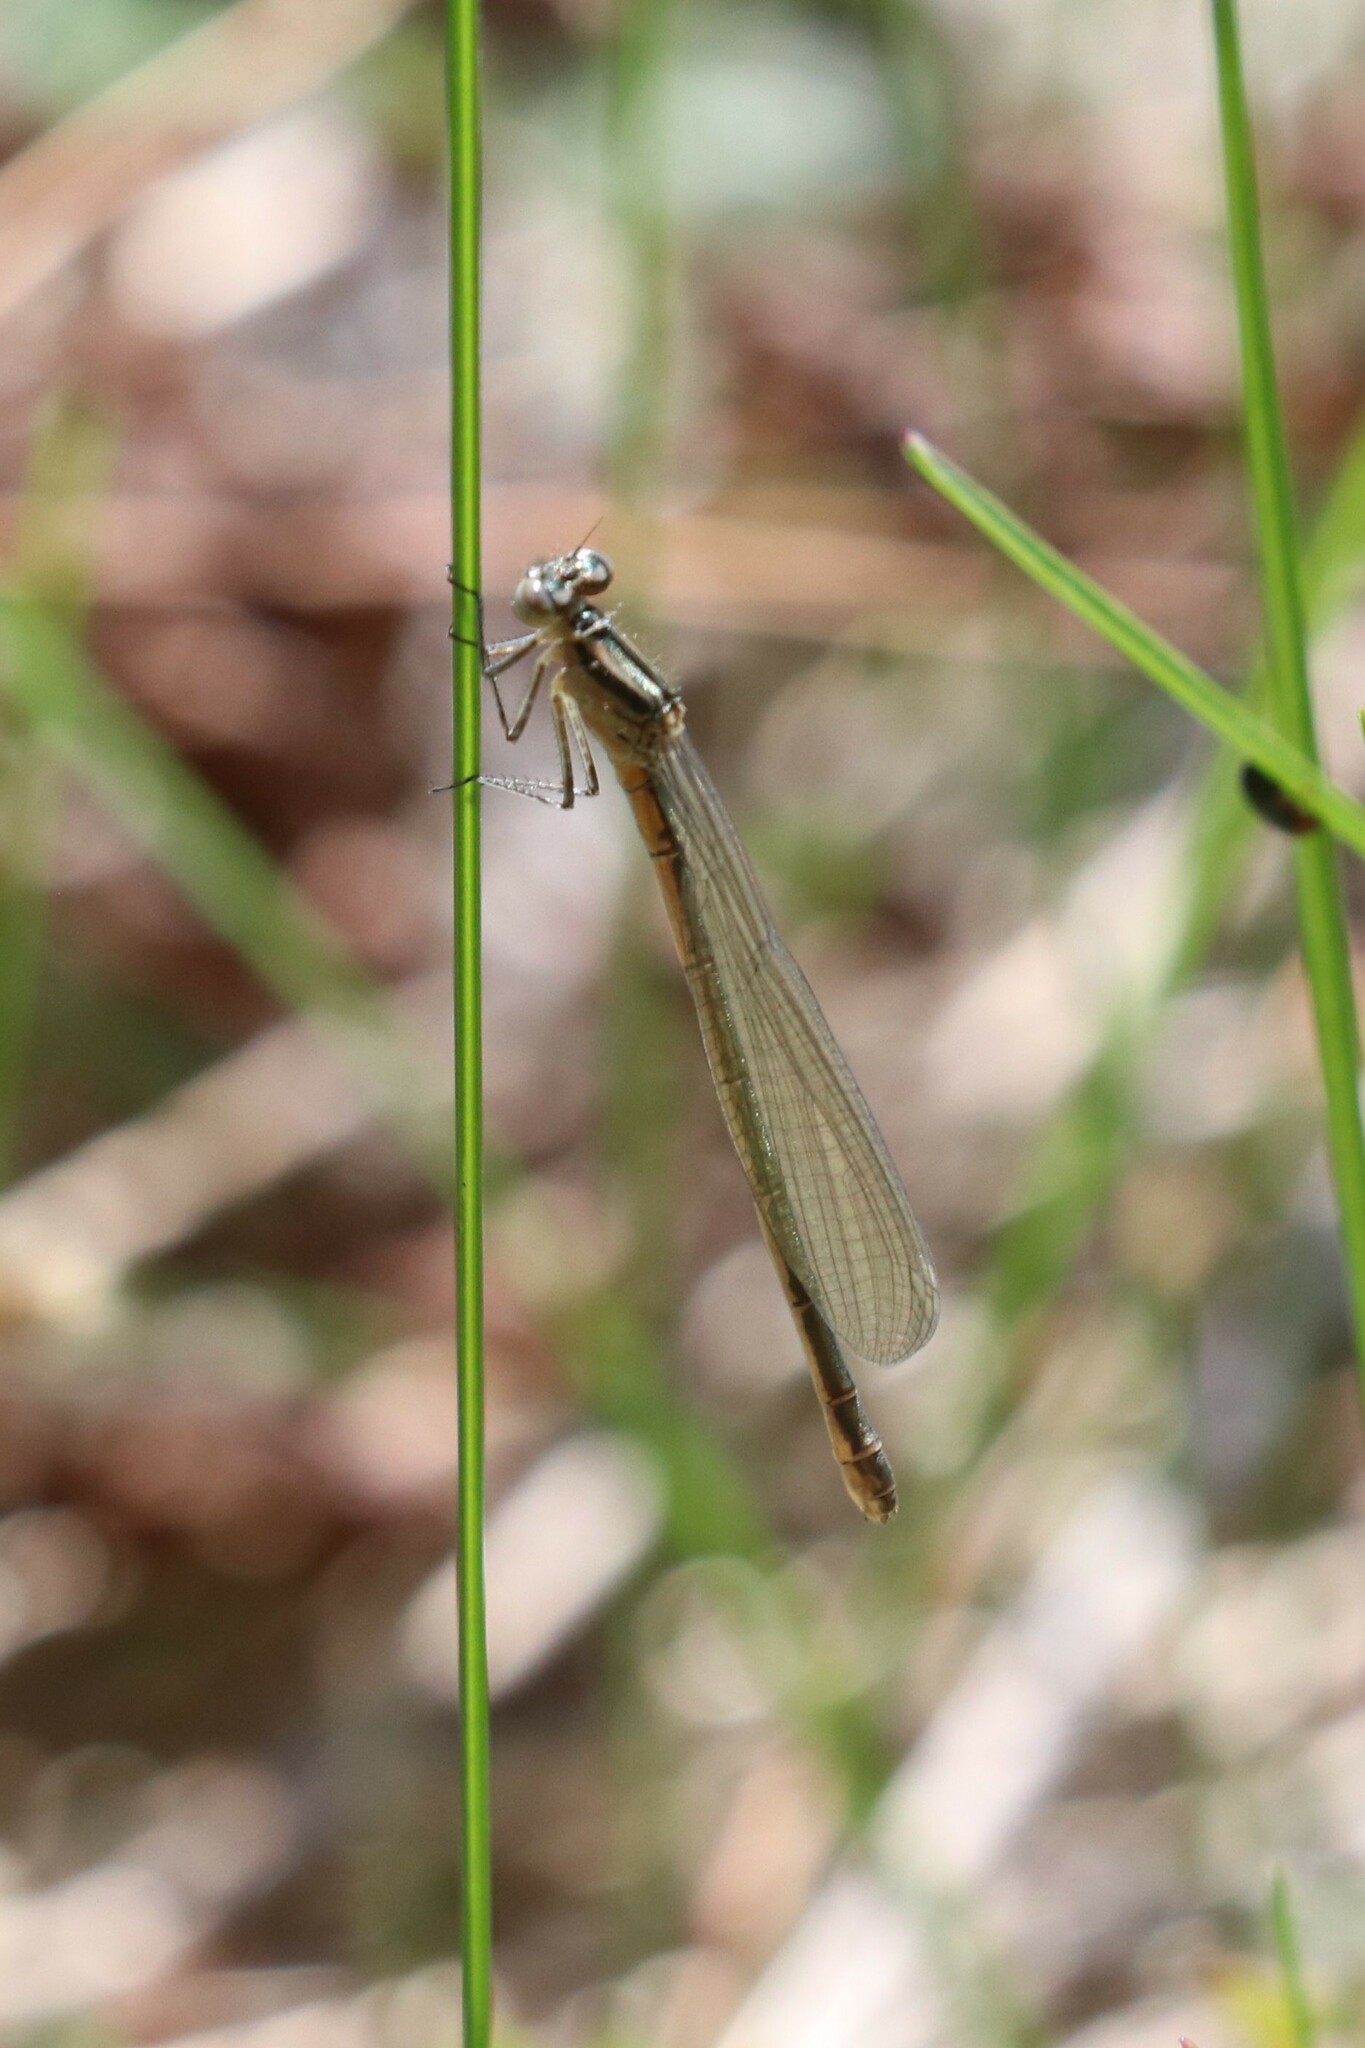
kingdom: Animalia
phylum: Arthropoda
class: Insecta
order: Odonata
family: Coenagrionidae
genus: Coenagrion
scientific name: Coenagrion hastulatum
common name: Spearhead bluet
